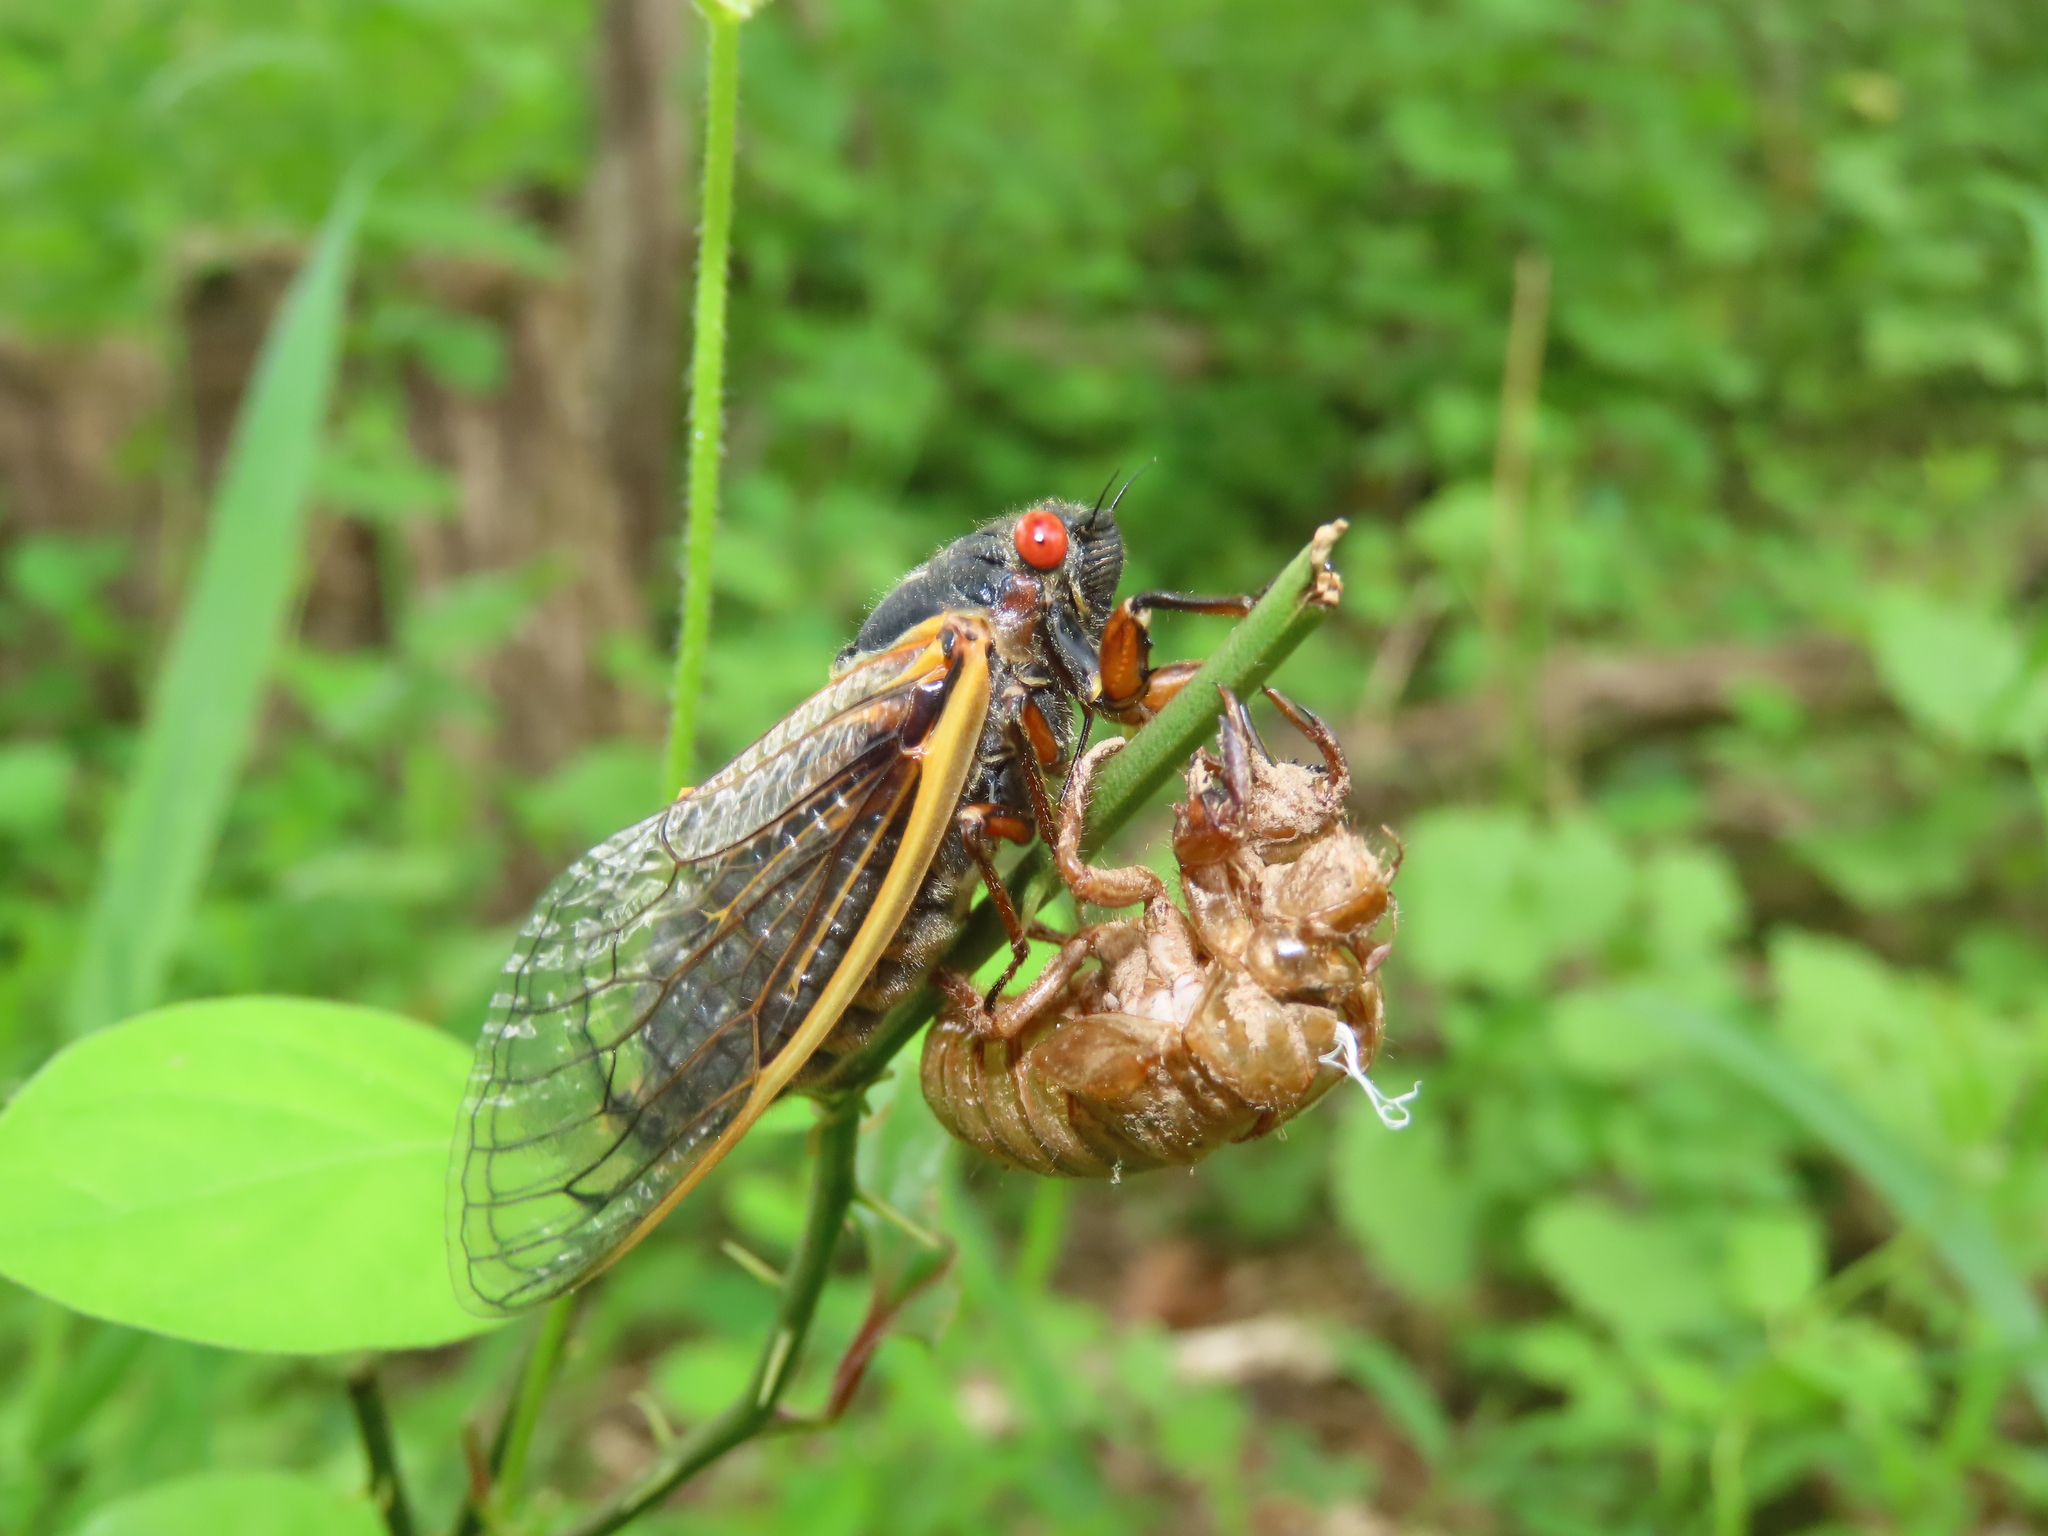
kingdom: Animalia
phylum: Arthropoda
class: Insecta
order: Hemiptera
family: Cicadidae
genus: Magicicada
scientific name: Magicicada septendecim
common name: Periodical cicada
